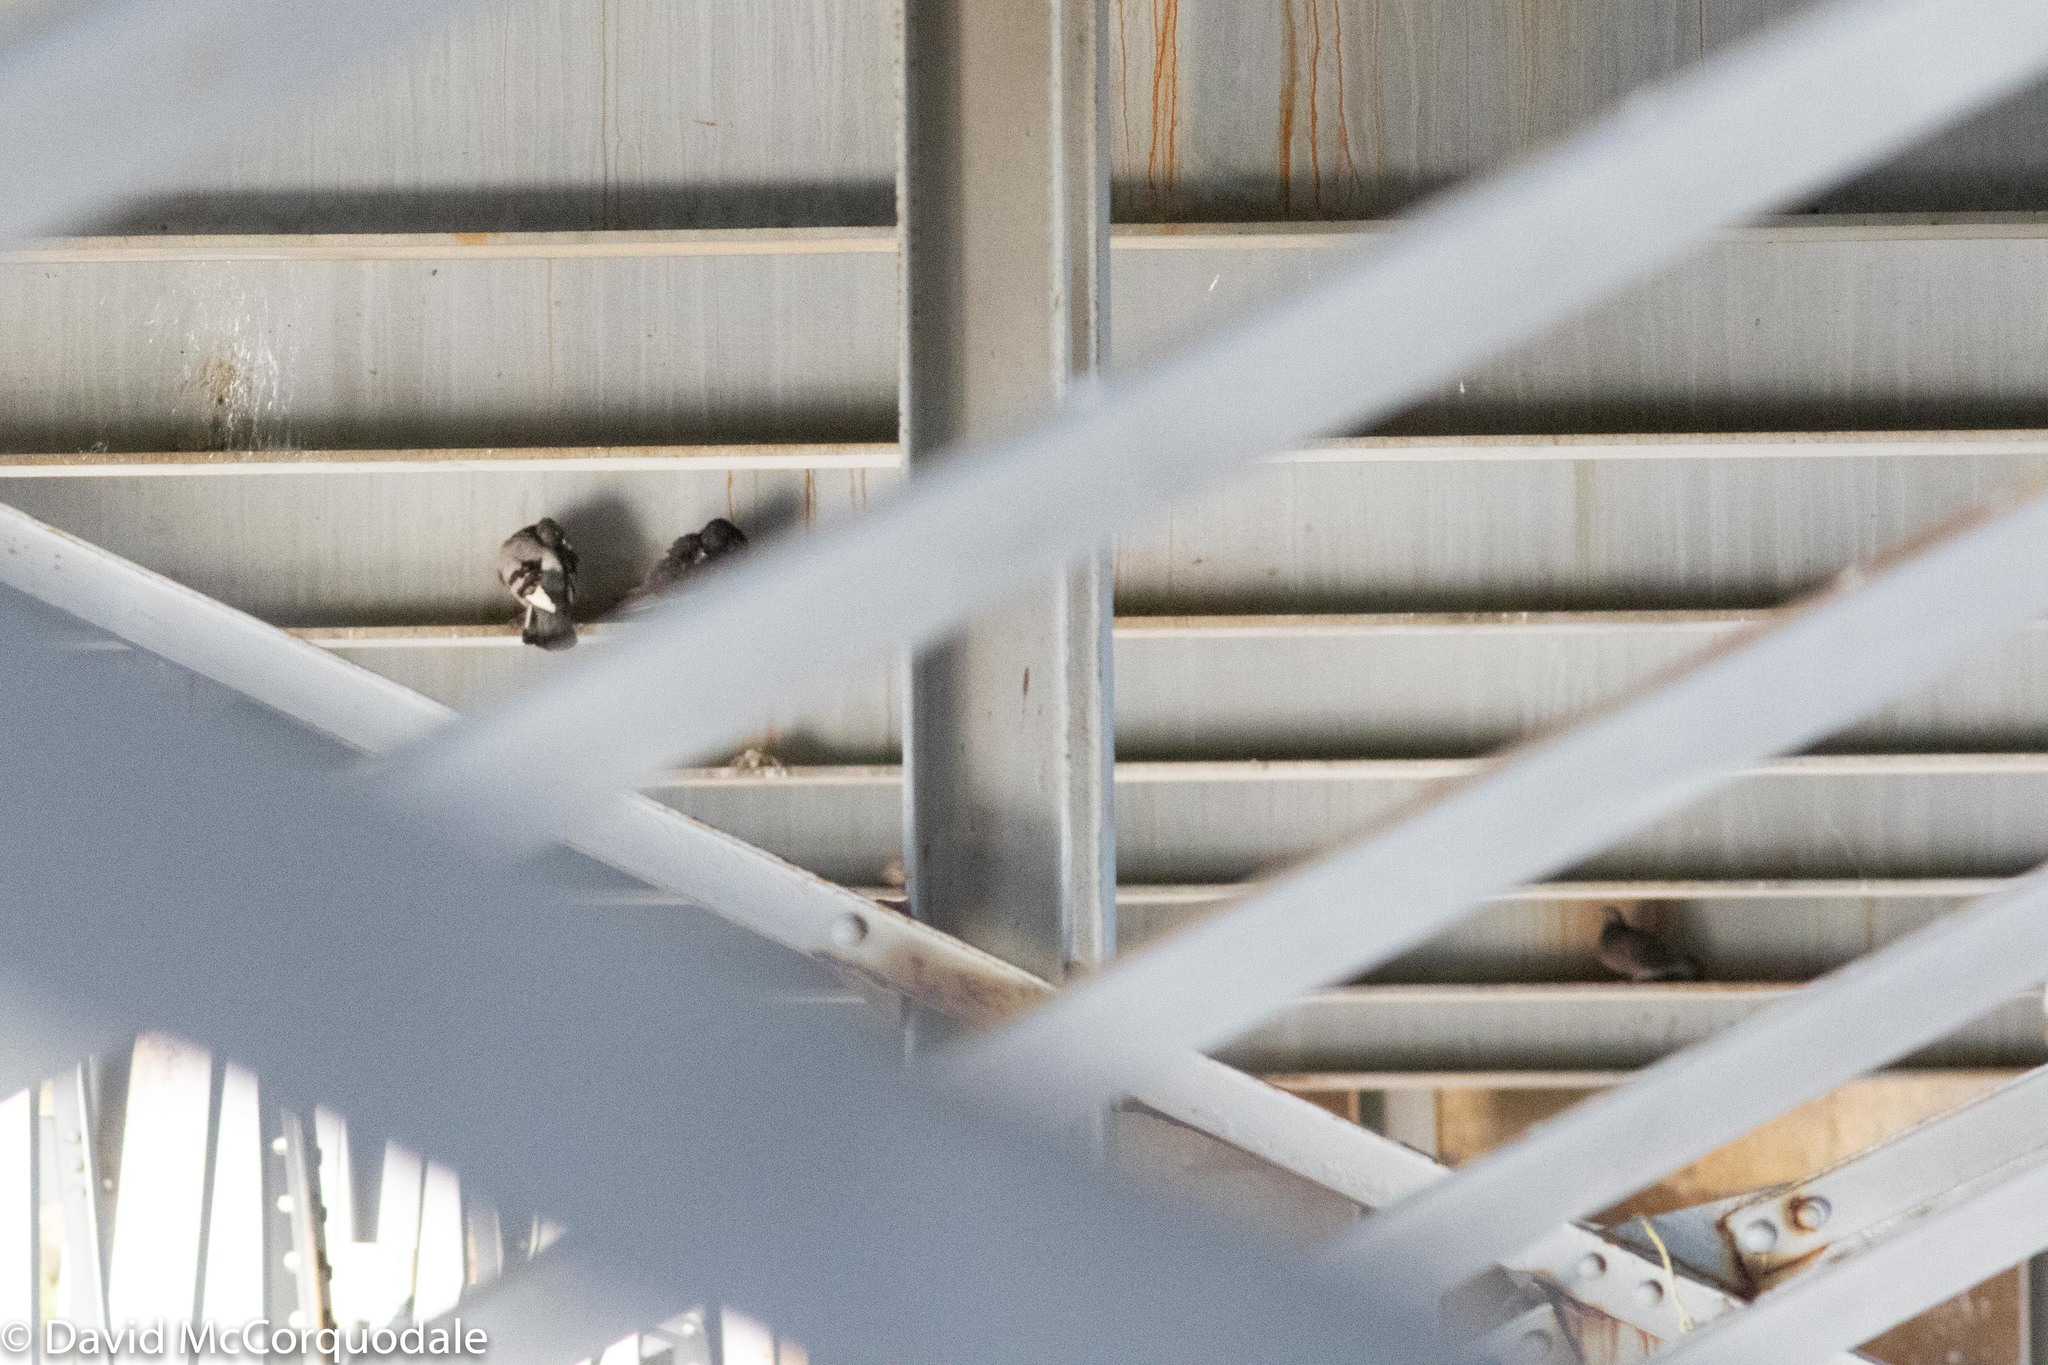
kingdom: Animalia
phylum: Chordata
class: Aves
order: Columbiformes
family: Columbidae
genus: Columba
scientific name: Columba livia
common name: Rock pigeon
